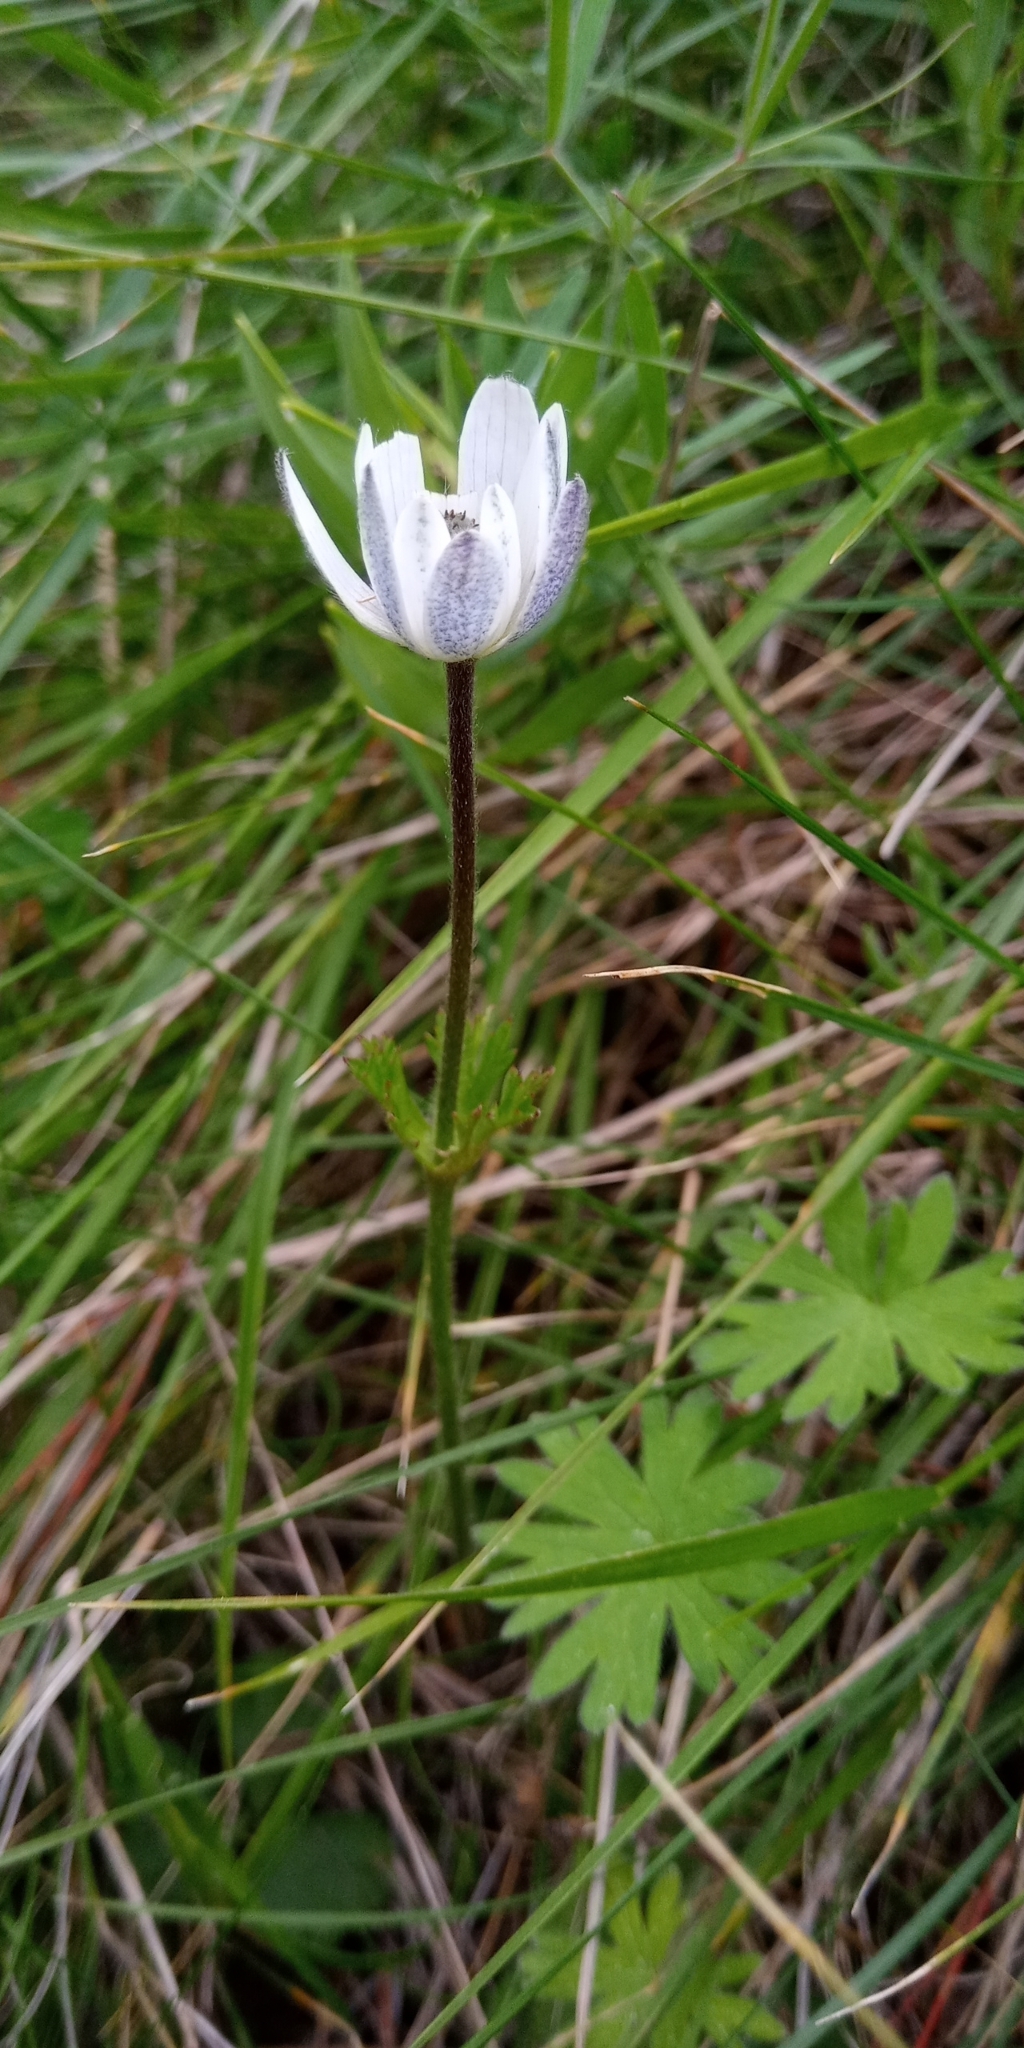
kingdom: Plantae
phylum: Tracheophyta
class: Magnoliopsida
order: Ranunculales
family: Ranunculaceae
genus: Anemone
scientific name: Anemone decapetala
